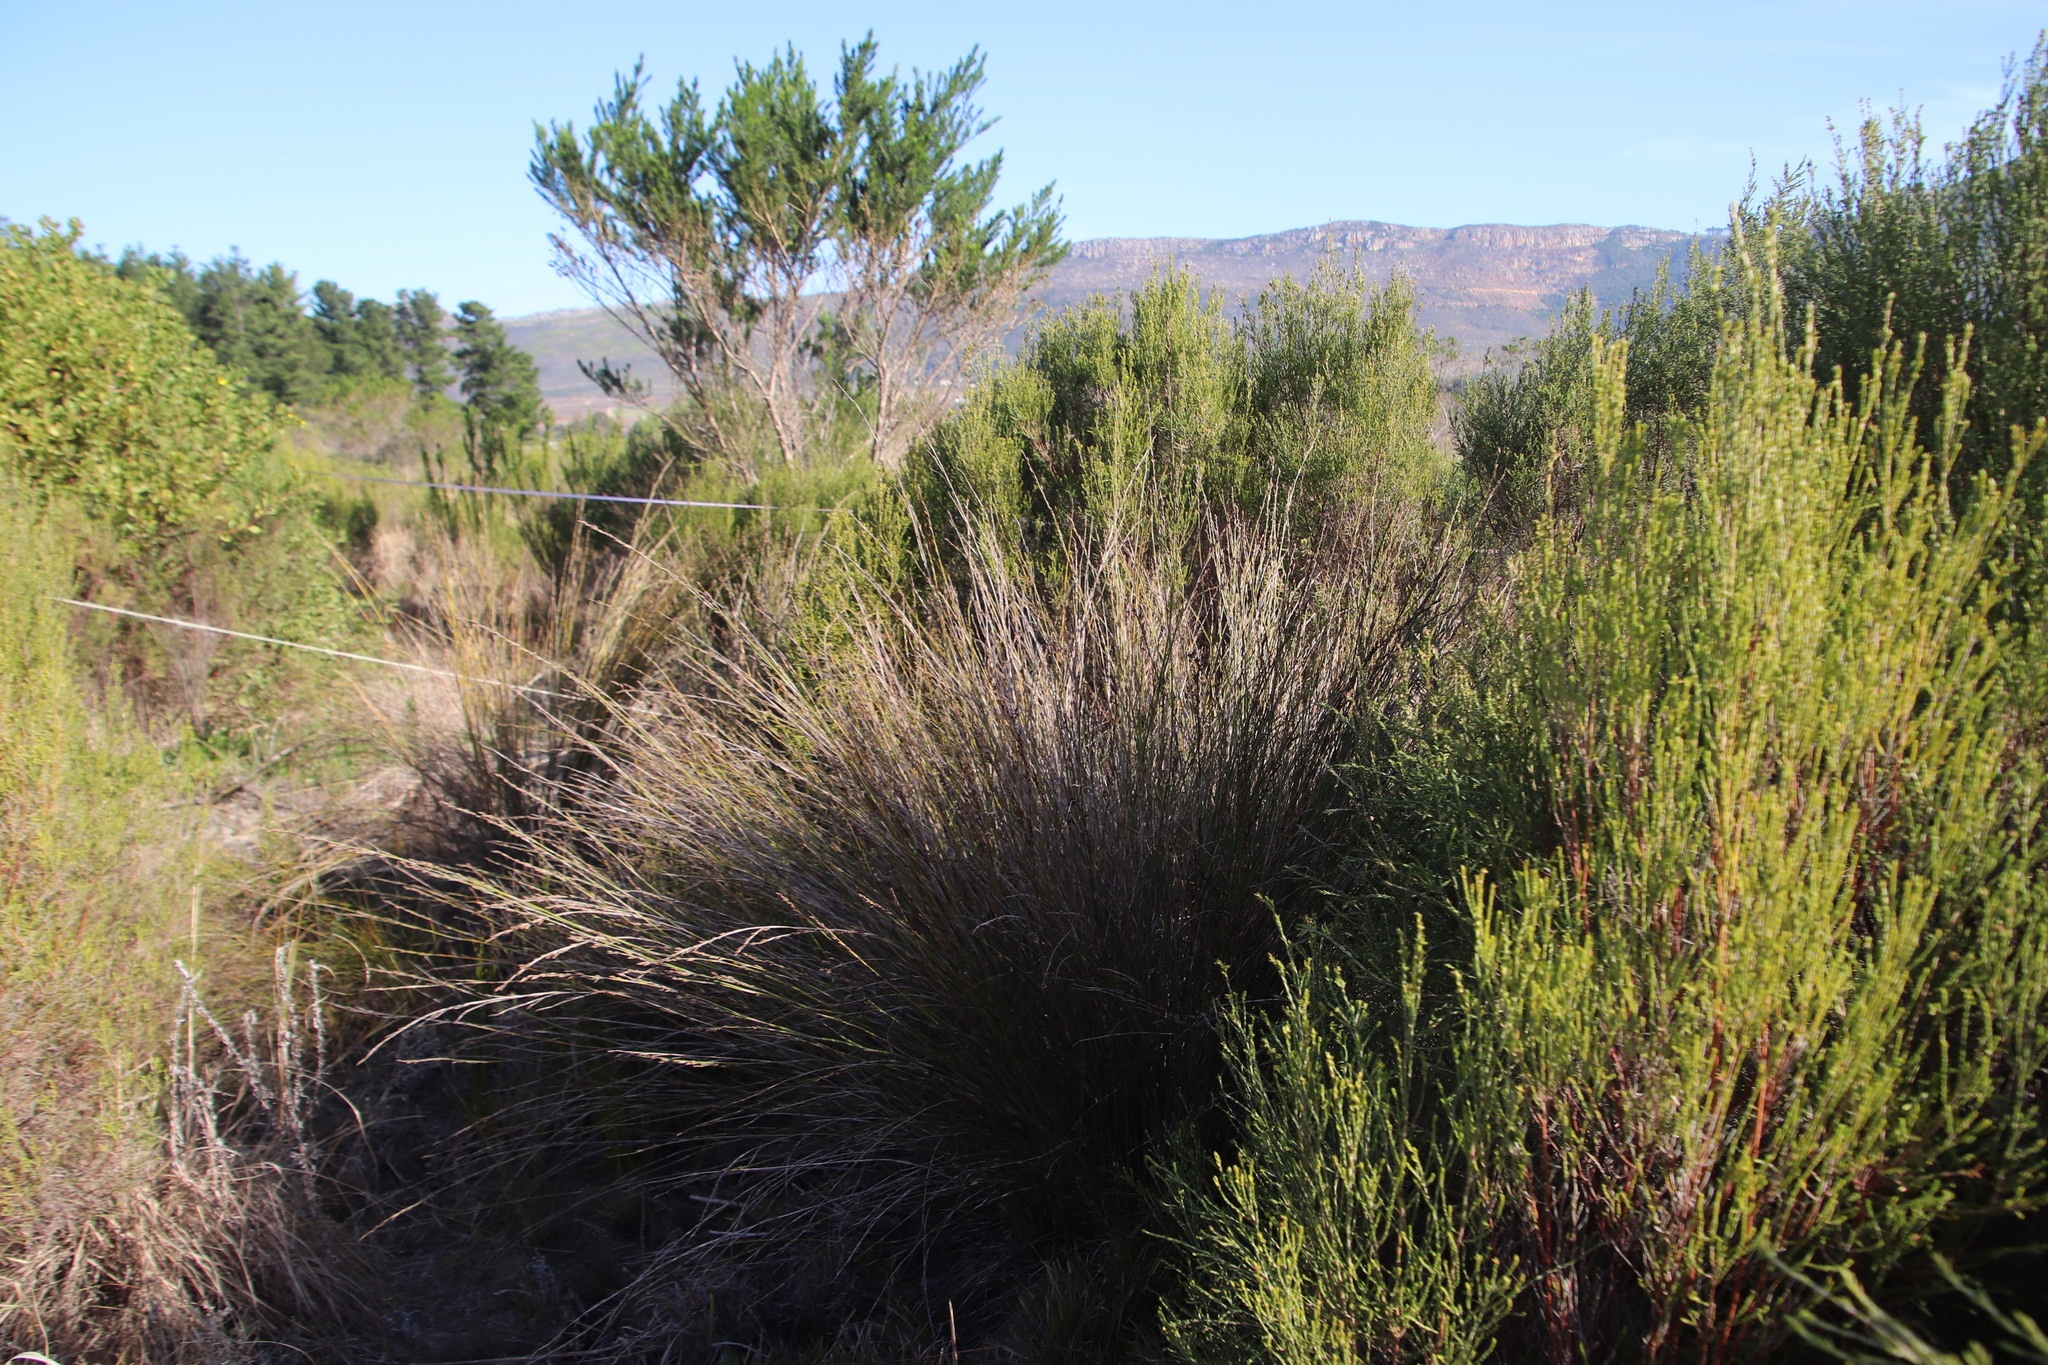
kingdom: Plantae
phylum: Tracheophyta
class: Liliopsida
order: Poales
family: Restionaceae
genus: Restio
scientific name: Restio tetragonus
